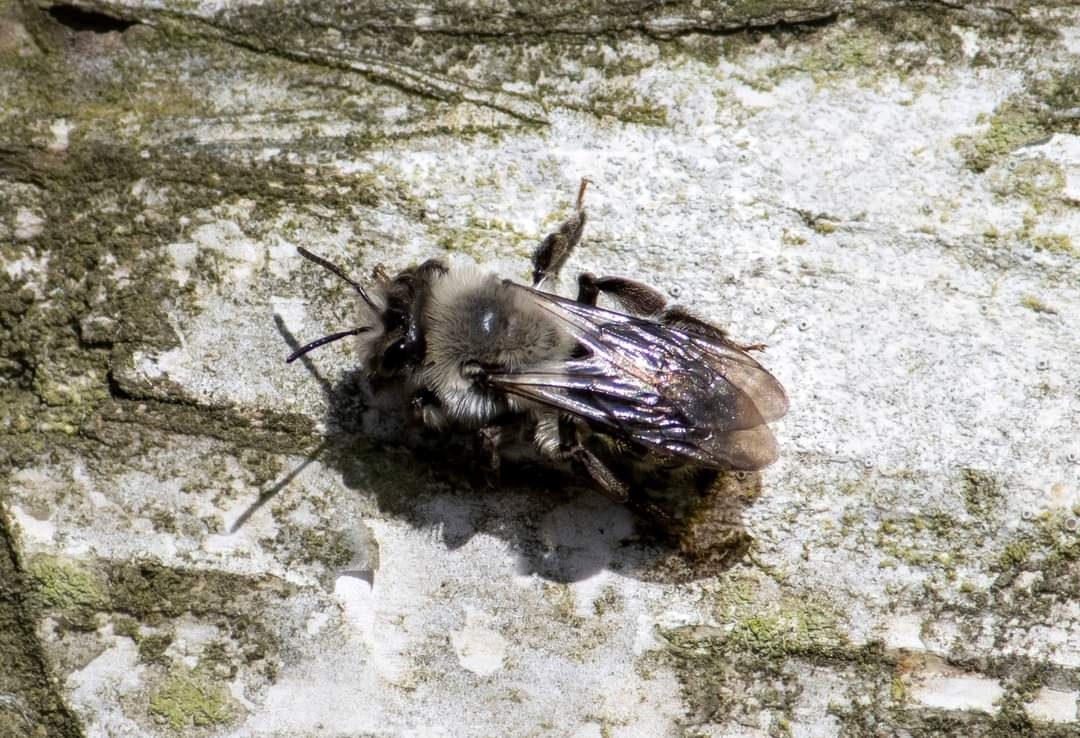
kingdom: Animalia
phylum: Arthropoda
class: Insecta
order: Hymenoptera
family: Andrenidae
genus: Andrena
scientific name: Andrena vaga
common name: Grey-backed mining bee
